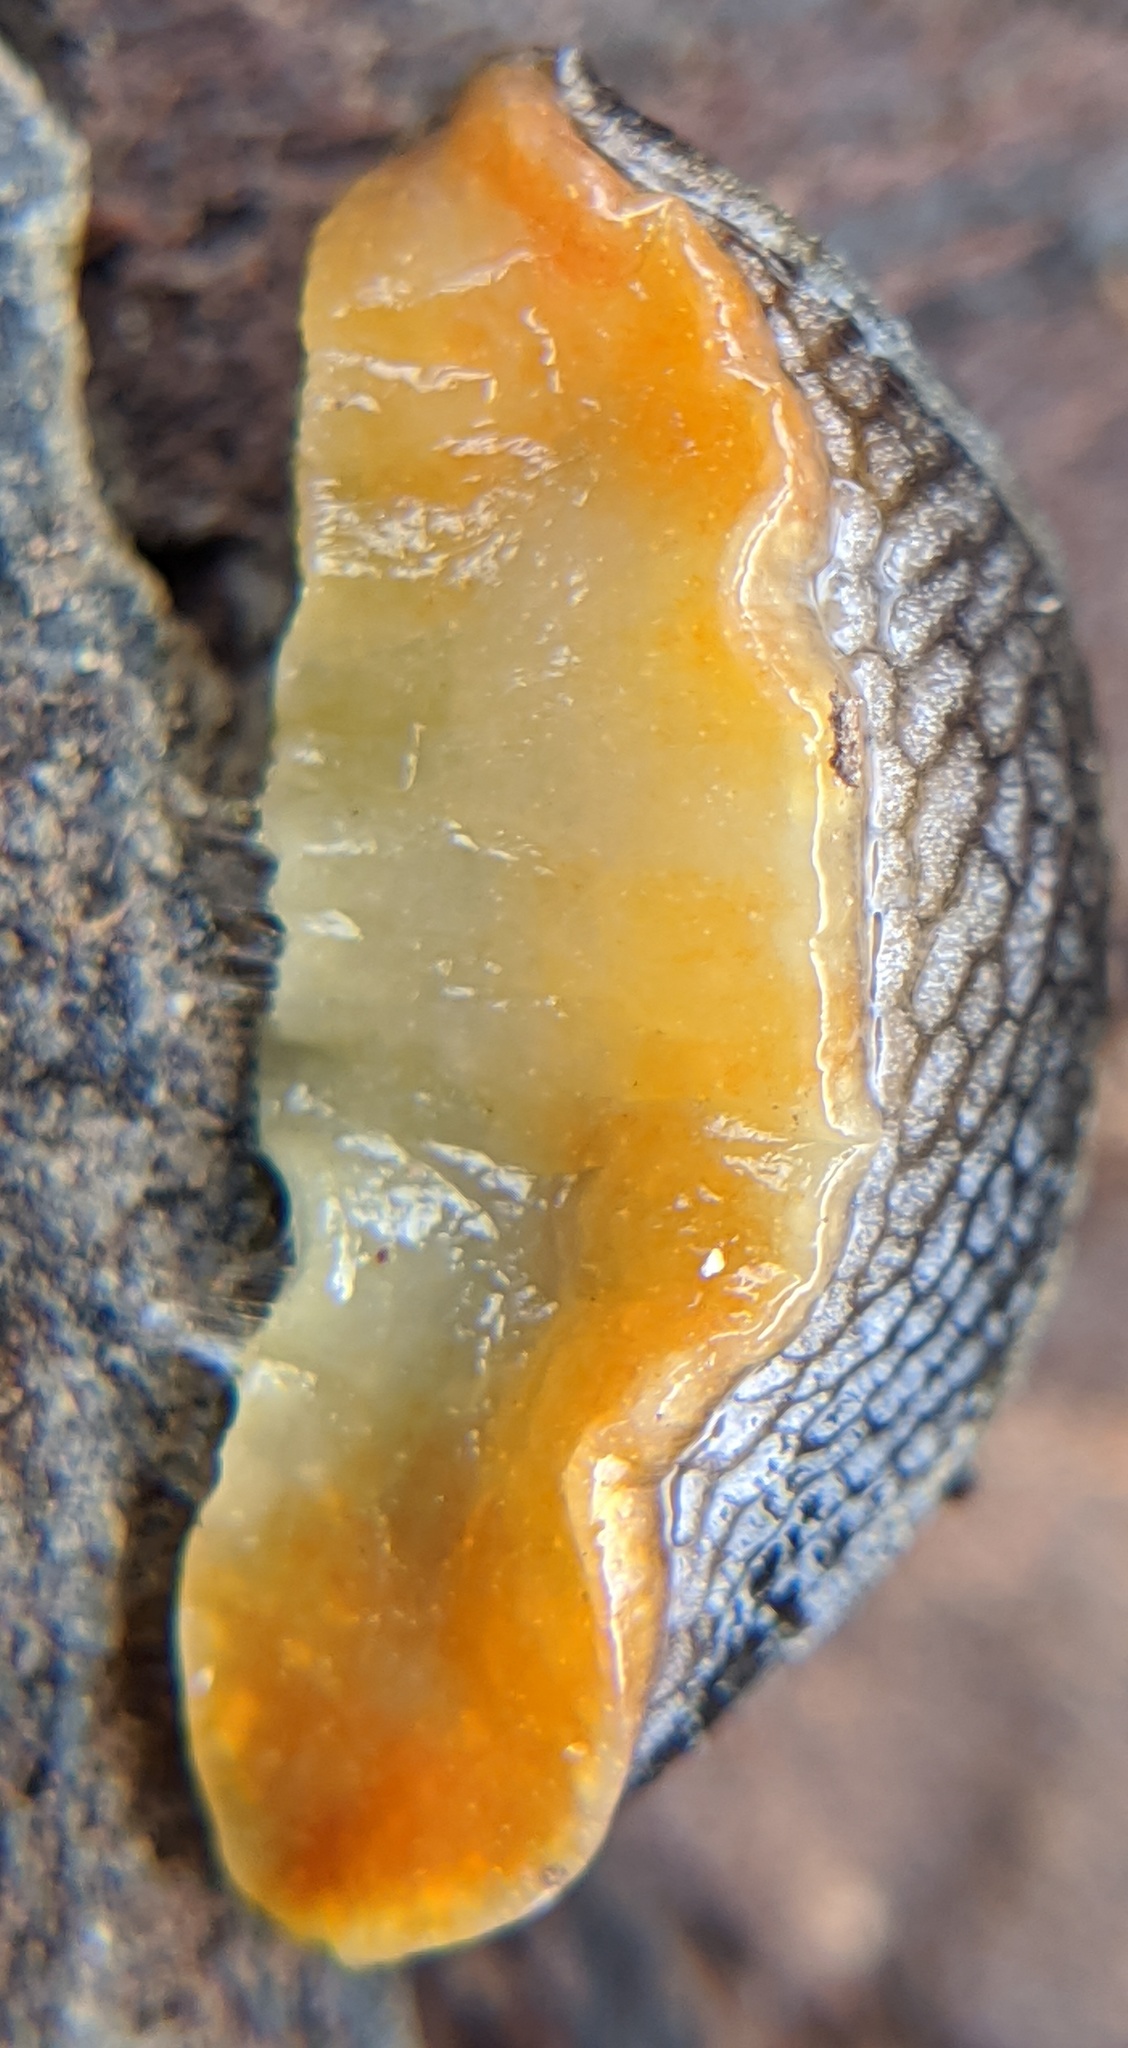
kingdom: Animalia
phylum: Mollusca
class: Gastropoda
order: Stylommatophora
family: Arionidae
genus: Arion
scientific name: Arion hortensis
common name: Garden arion
